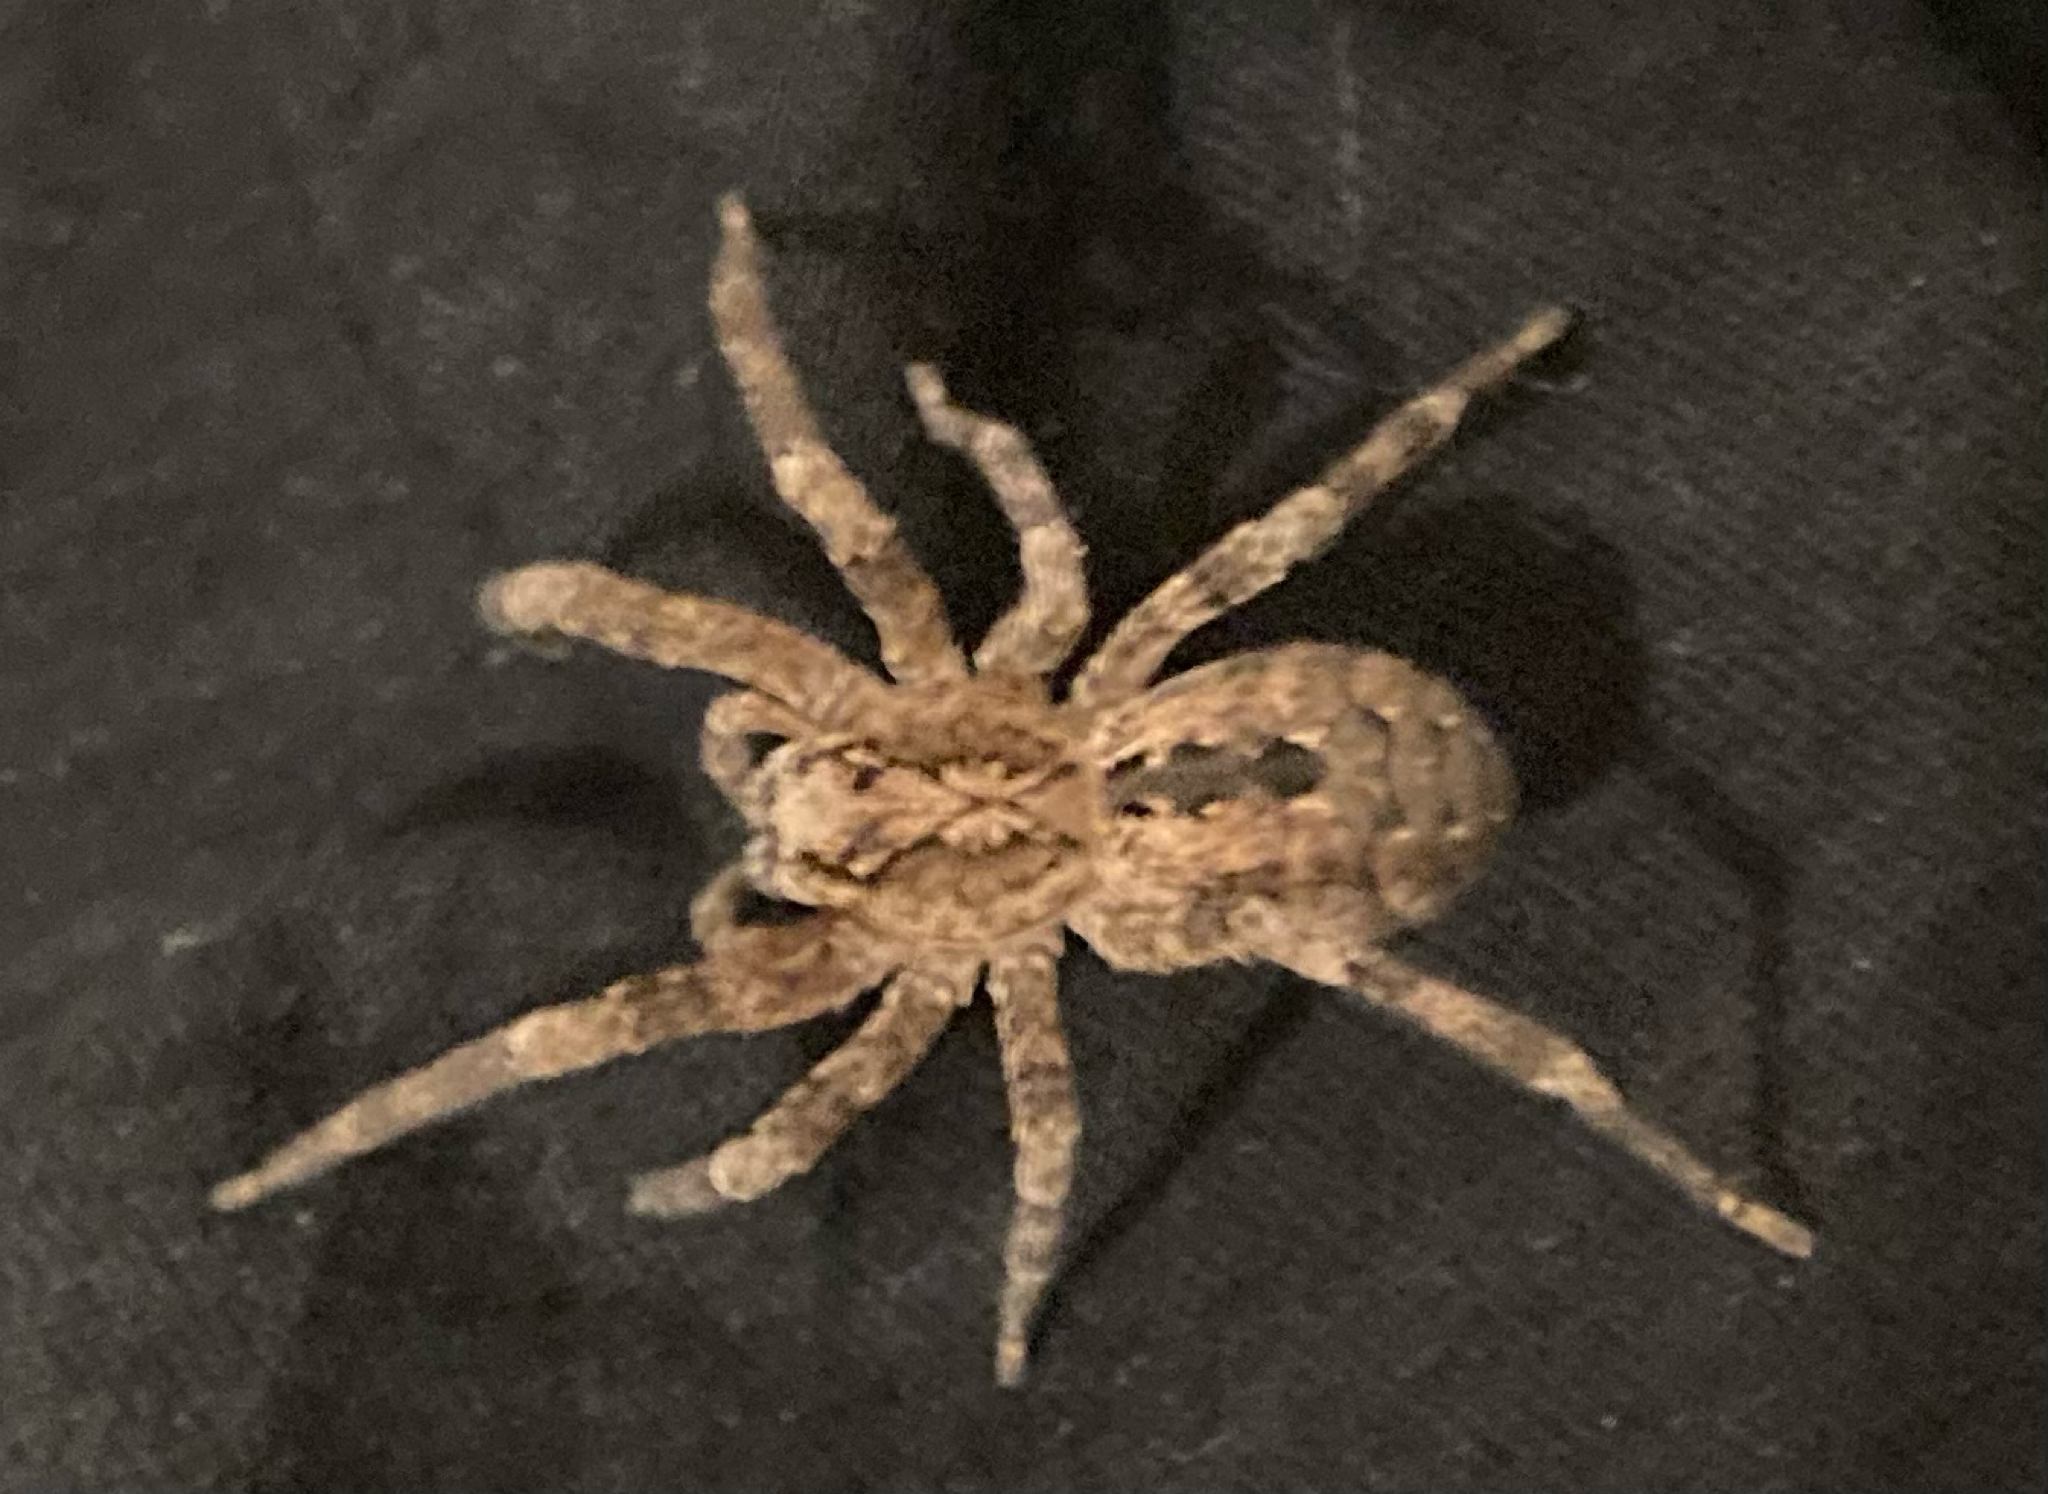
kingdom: Animalia
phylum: Arthropoda
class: Arachnida
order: Araneae
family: Zoropsidae
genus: Zoropsis
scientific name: Zoropsis spinimana
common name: Zoropsid spider
